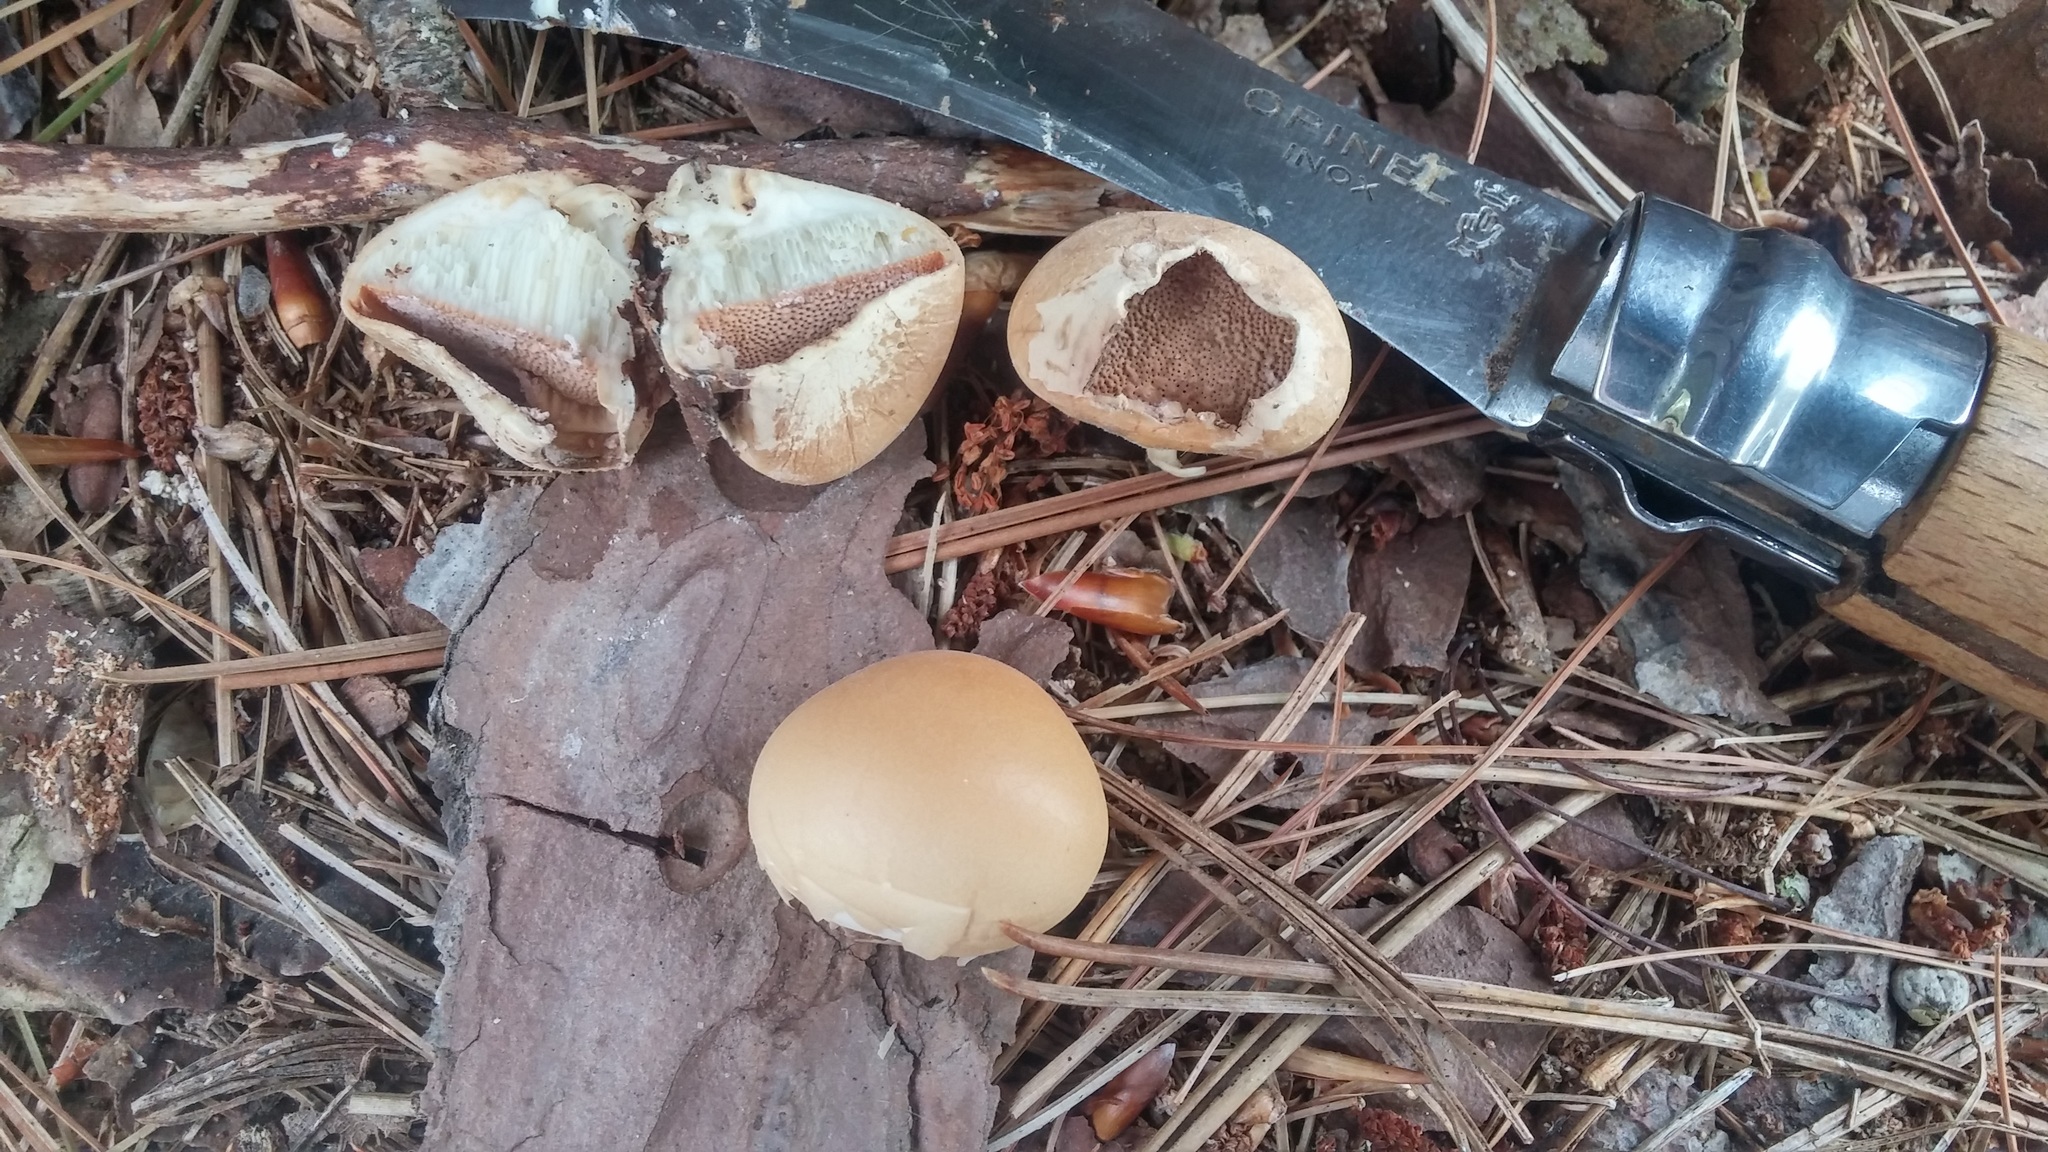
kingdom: Fungi
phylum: Basidiomycota
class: Agaricomycetes
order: Polyporales
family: Polyporaceae
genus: Cryptoporus
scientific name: Cryptoporus volvatus
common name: Veiled polypore
